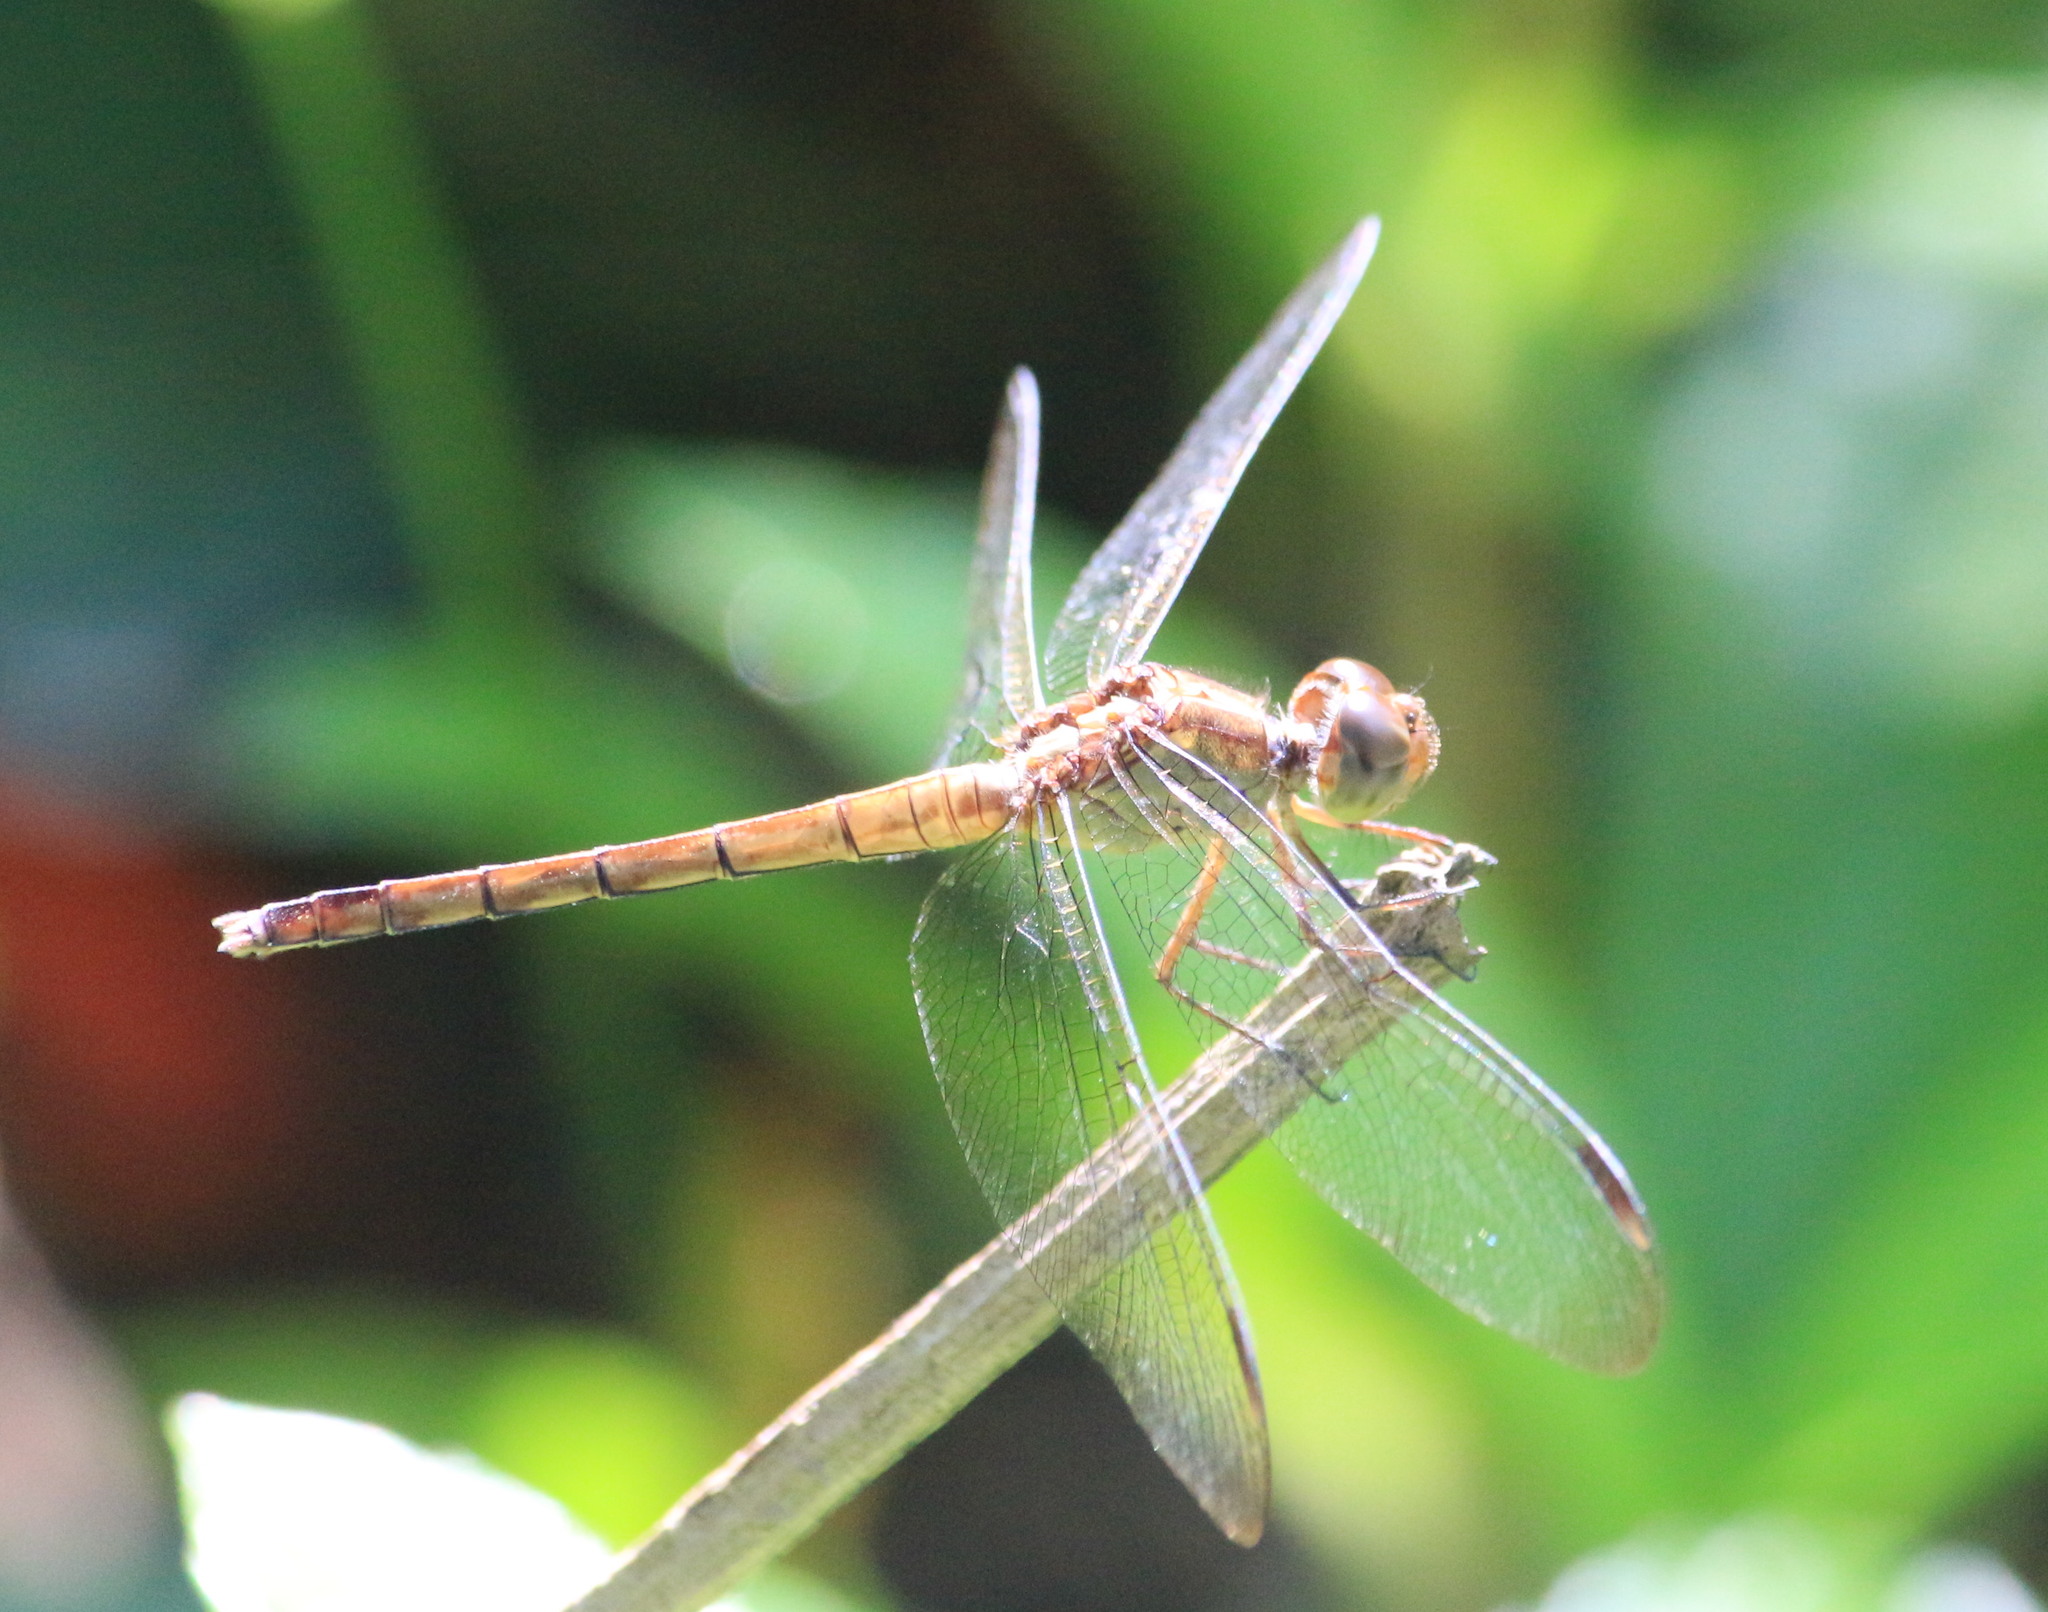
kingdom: Animalia
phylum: Arthropoda
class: Insecta
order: Odonata
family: Libellulidae
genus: Erythrodiplax
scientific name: Erythrodiplax umbrata
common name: Band-winged dragonlet
